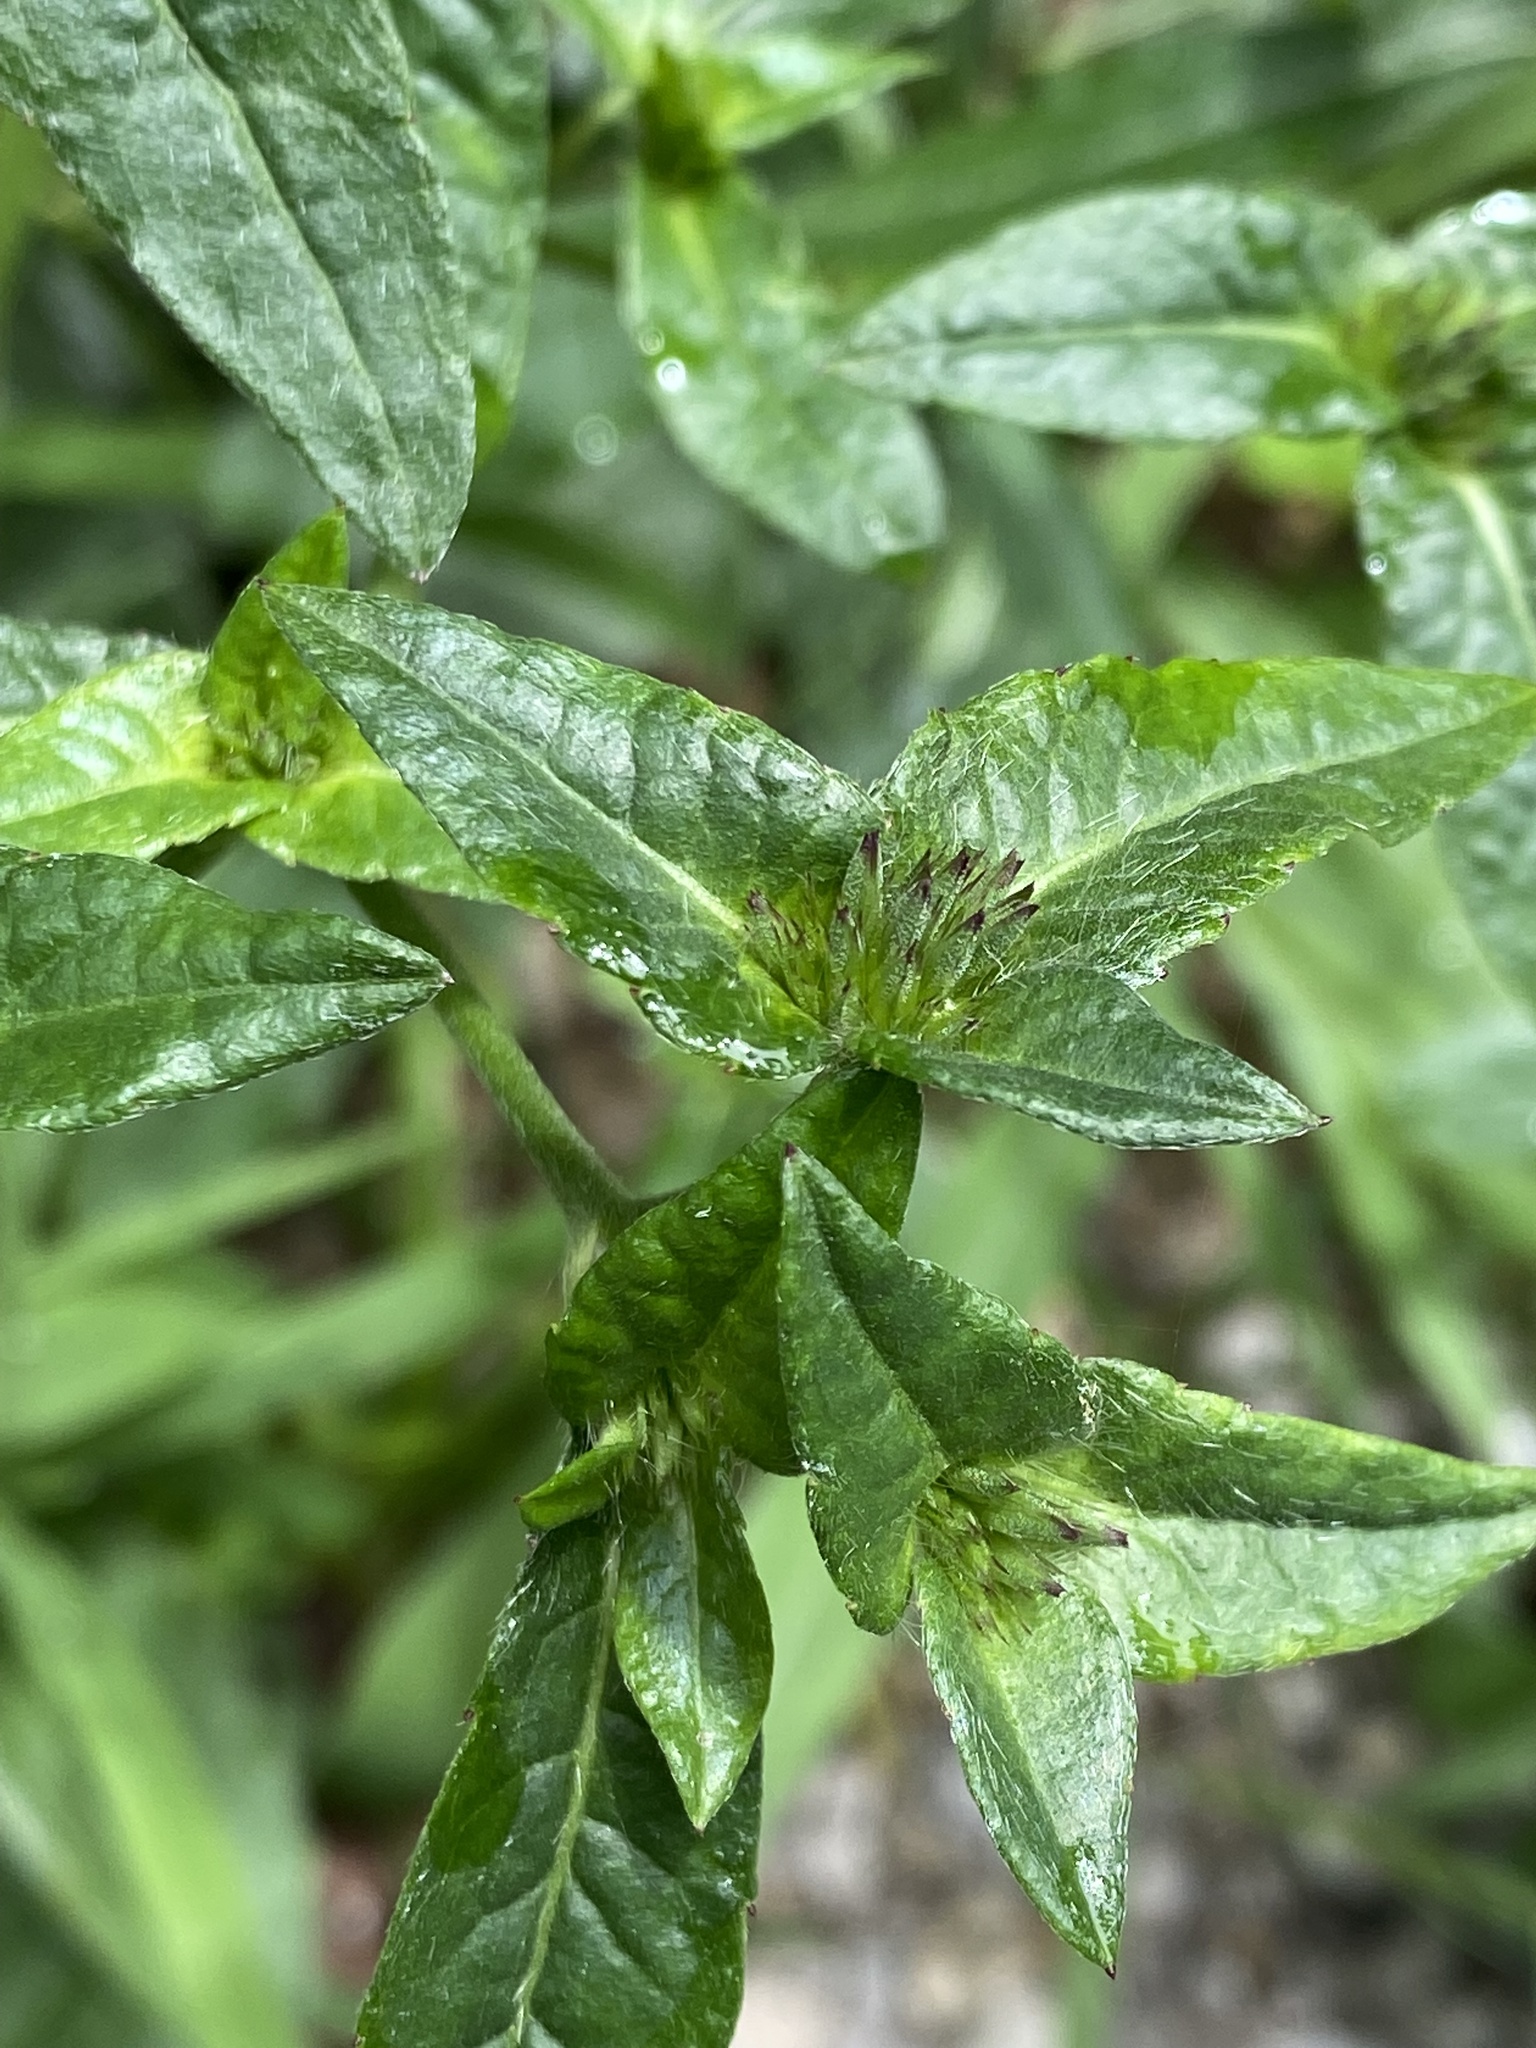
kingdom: Plantae
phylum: Tracheophyta
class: Magnoliopsida
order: Asterales
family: Asteraceae
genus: Elephantopus
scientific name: Elephantopus carolinianus
